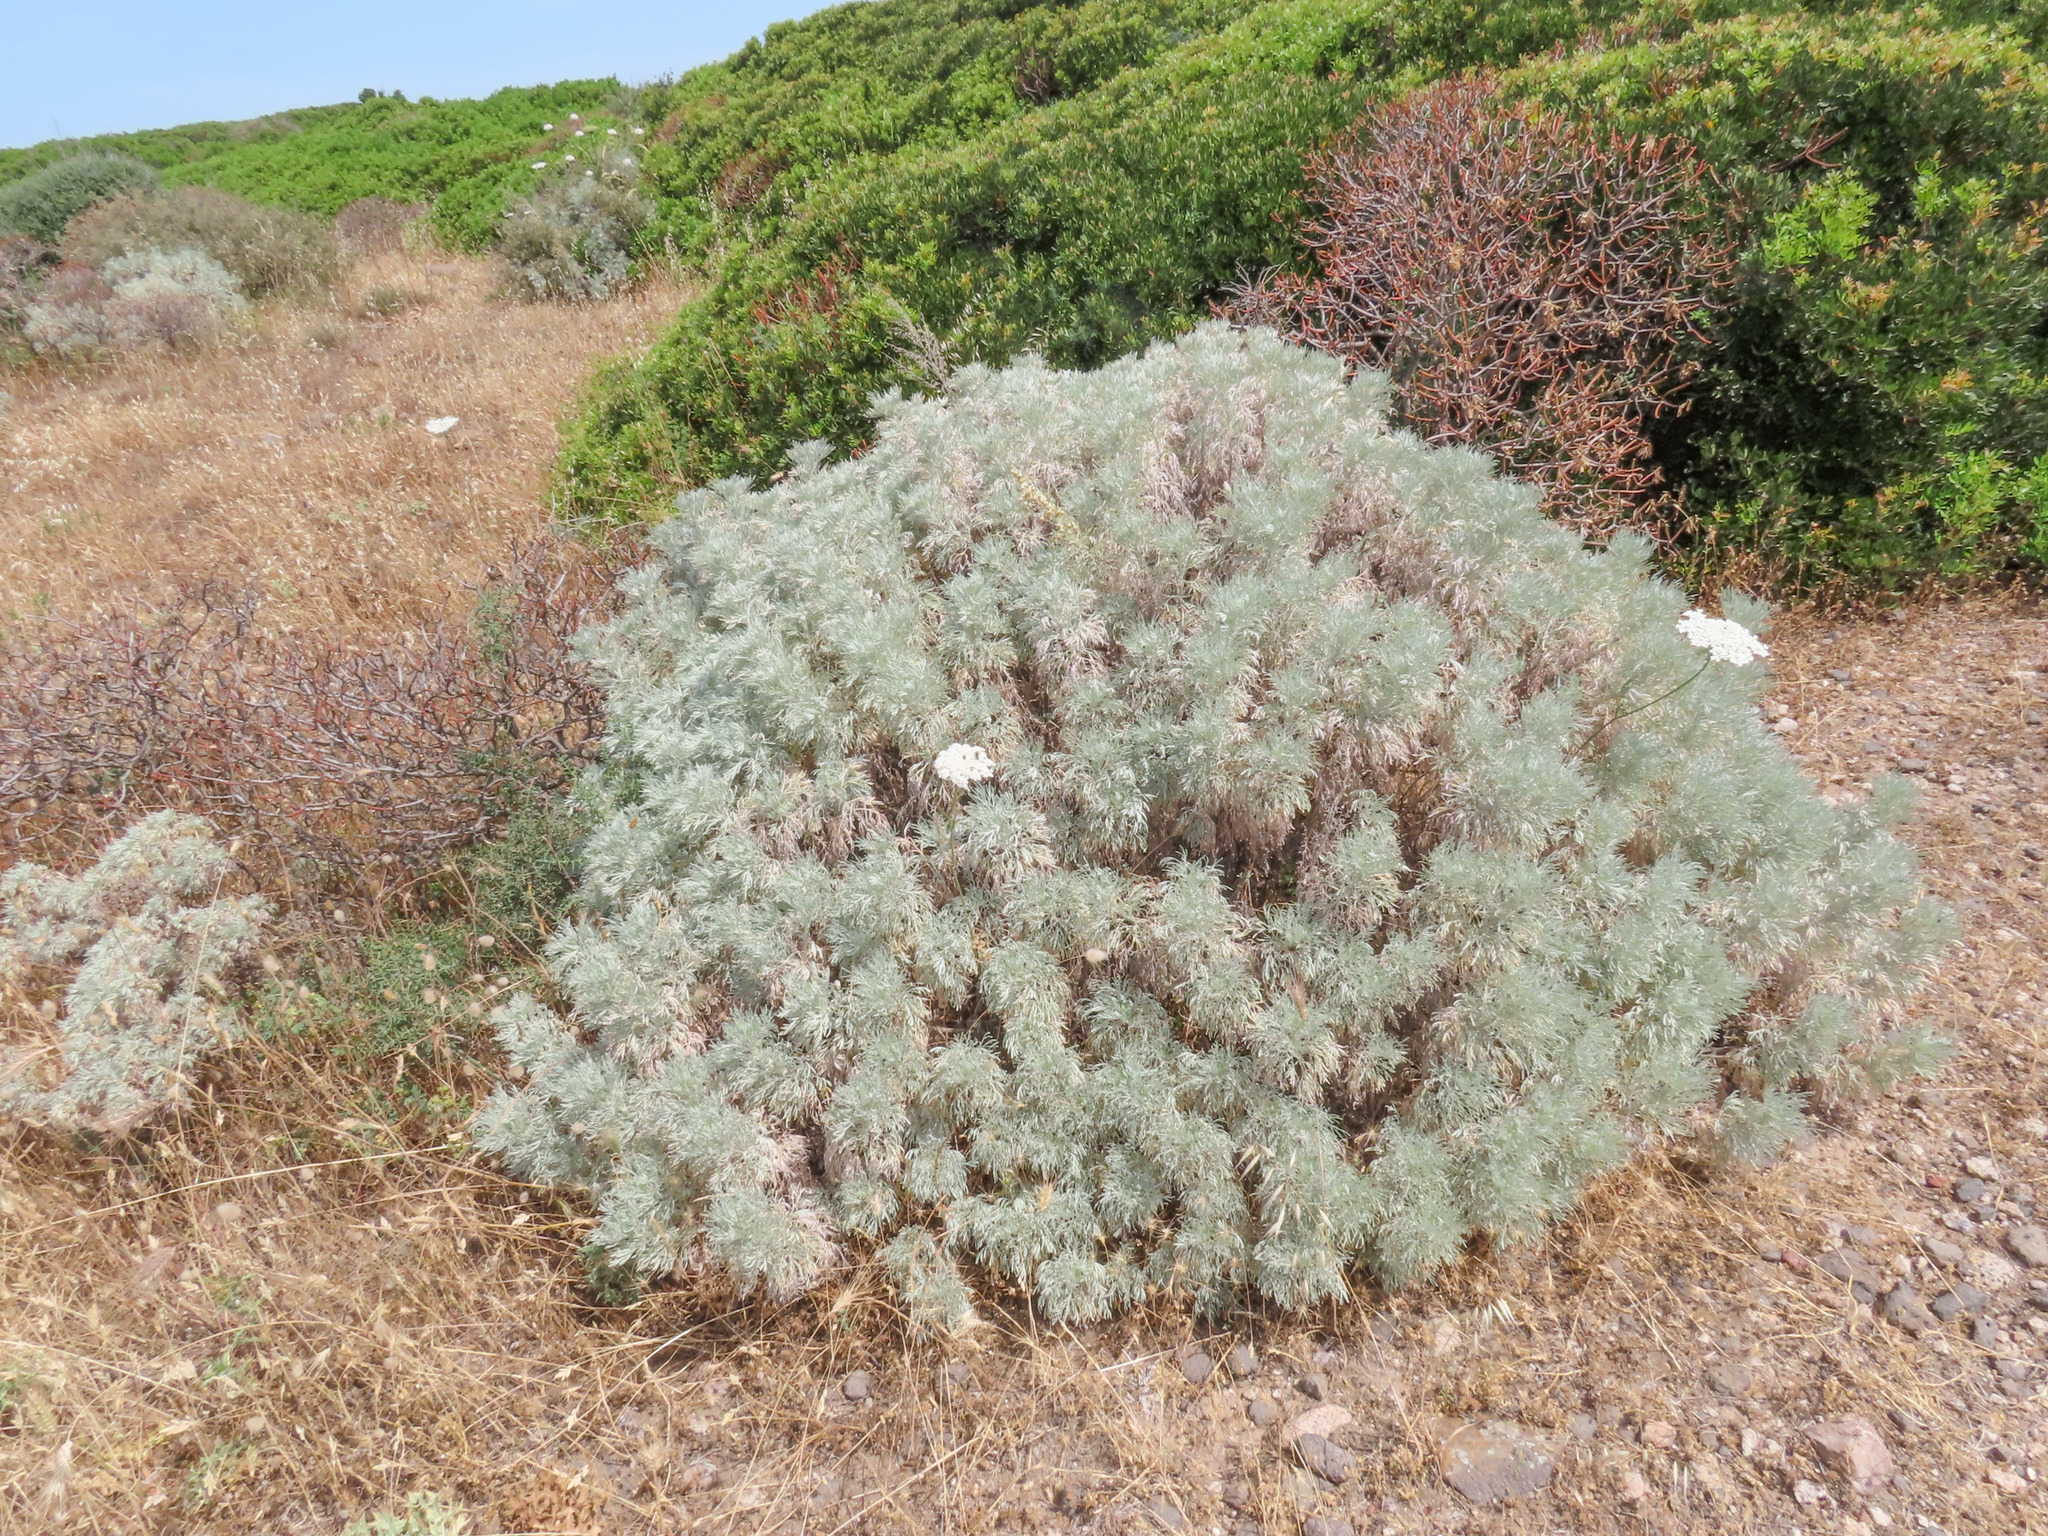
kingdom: Plantae
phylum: Tracheophyta
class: Magnoliopsida
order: Asterales
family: Asteraceae
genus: Artemisia
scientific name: Artemisia arborescens
